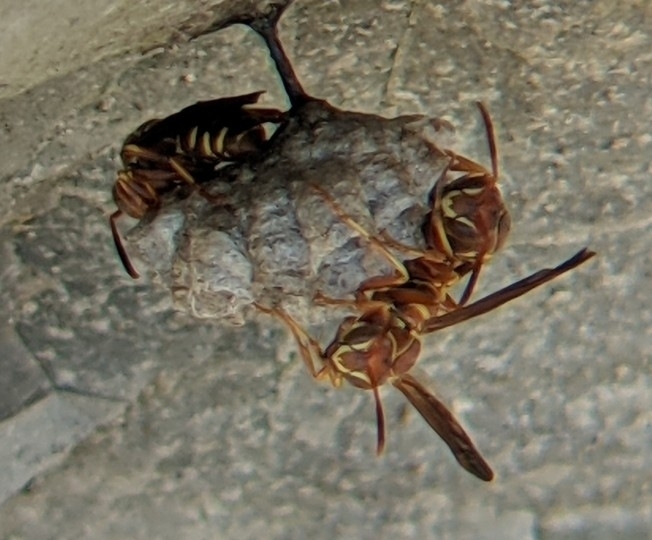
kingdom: Animalia
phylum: Arthropoda
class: Insecta
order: Hymenoptera
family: Eumenidae
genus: Polistes
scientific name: Polistes dorsalis
